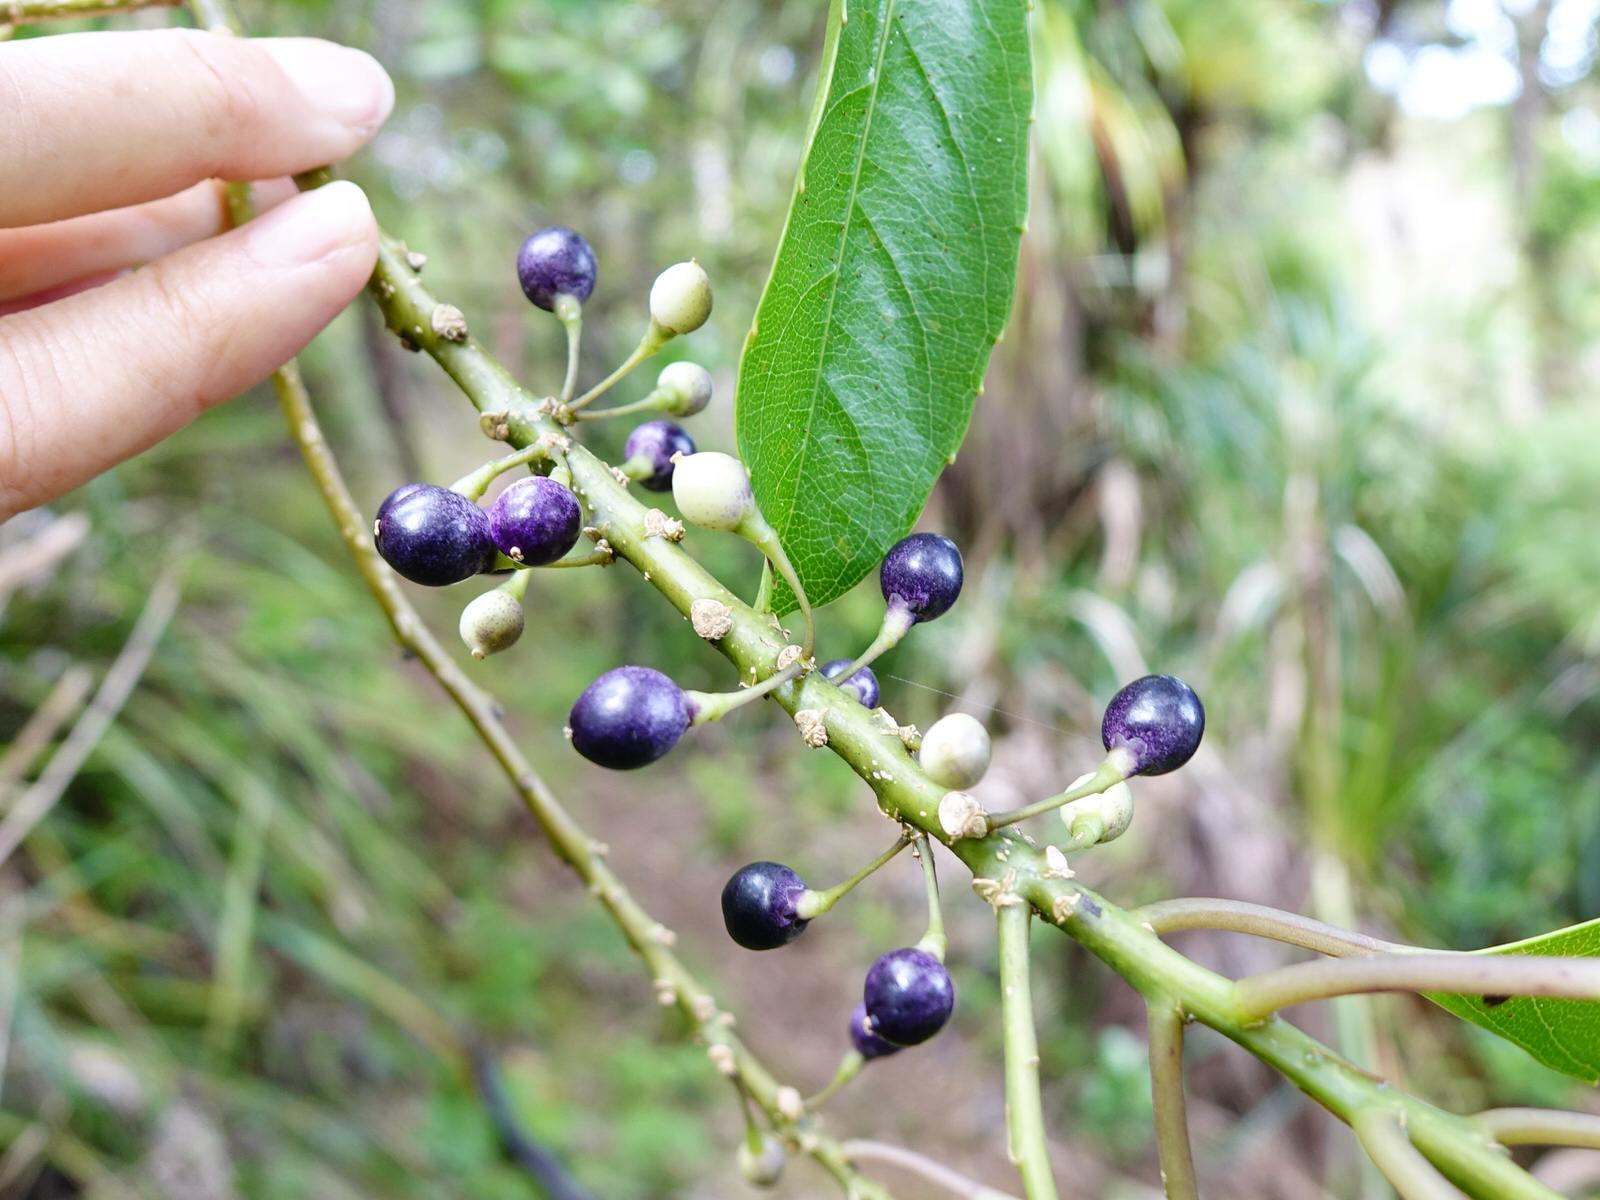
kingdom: Plantae
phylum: Tracheophyta
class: Magnoliopsida
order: Malpighiales
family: Violaceae
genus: Melicytus
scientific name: Melicytus macrophyllus
